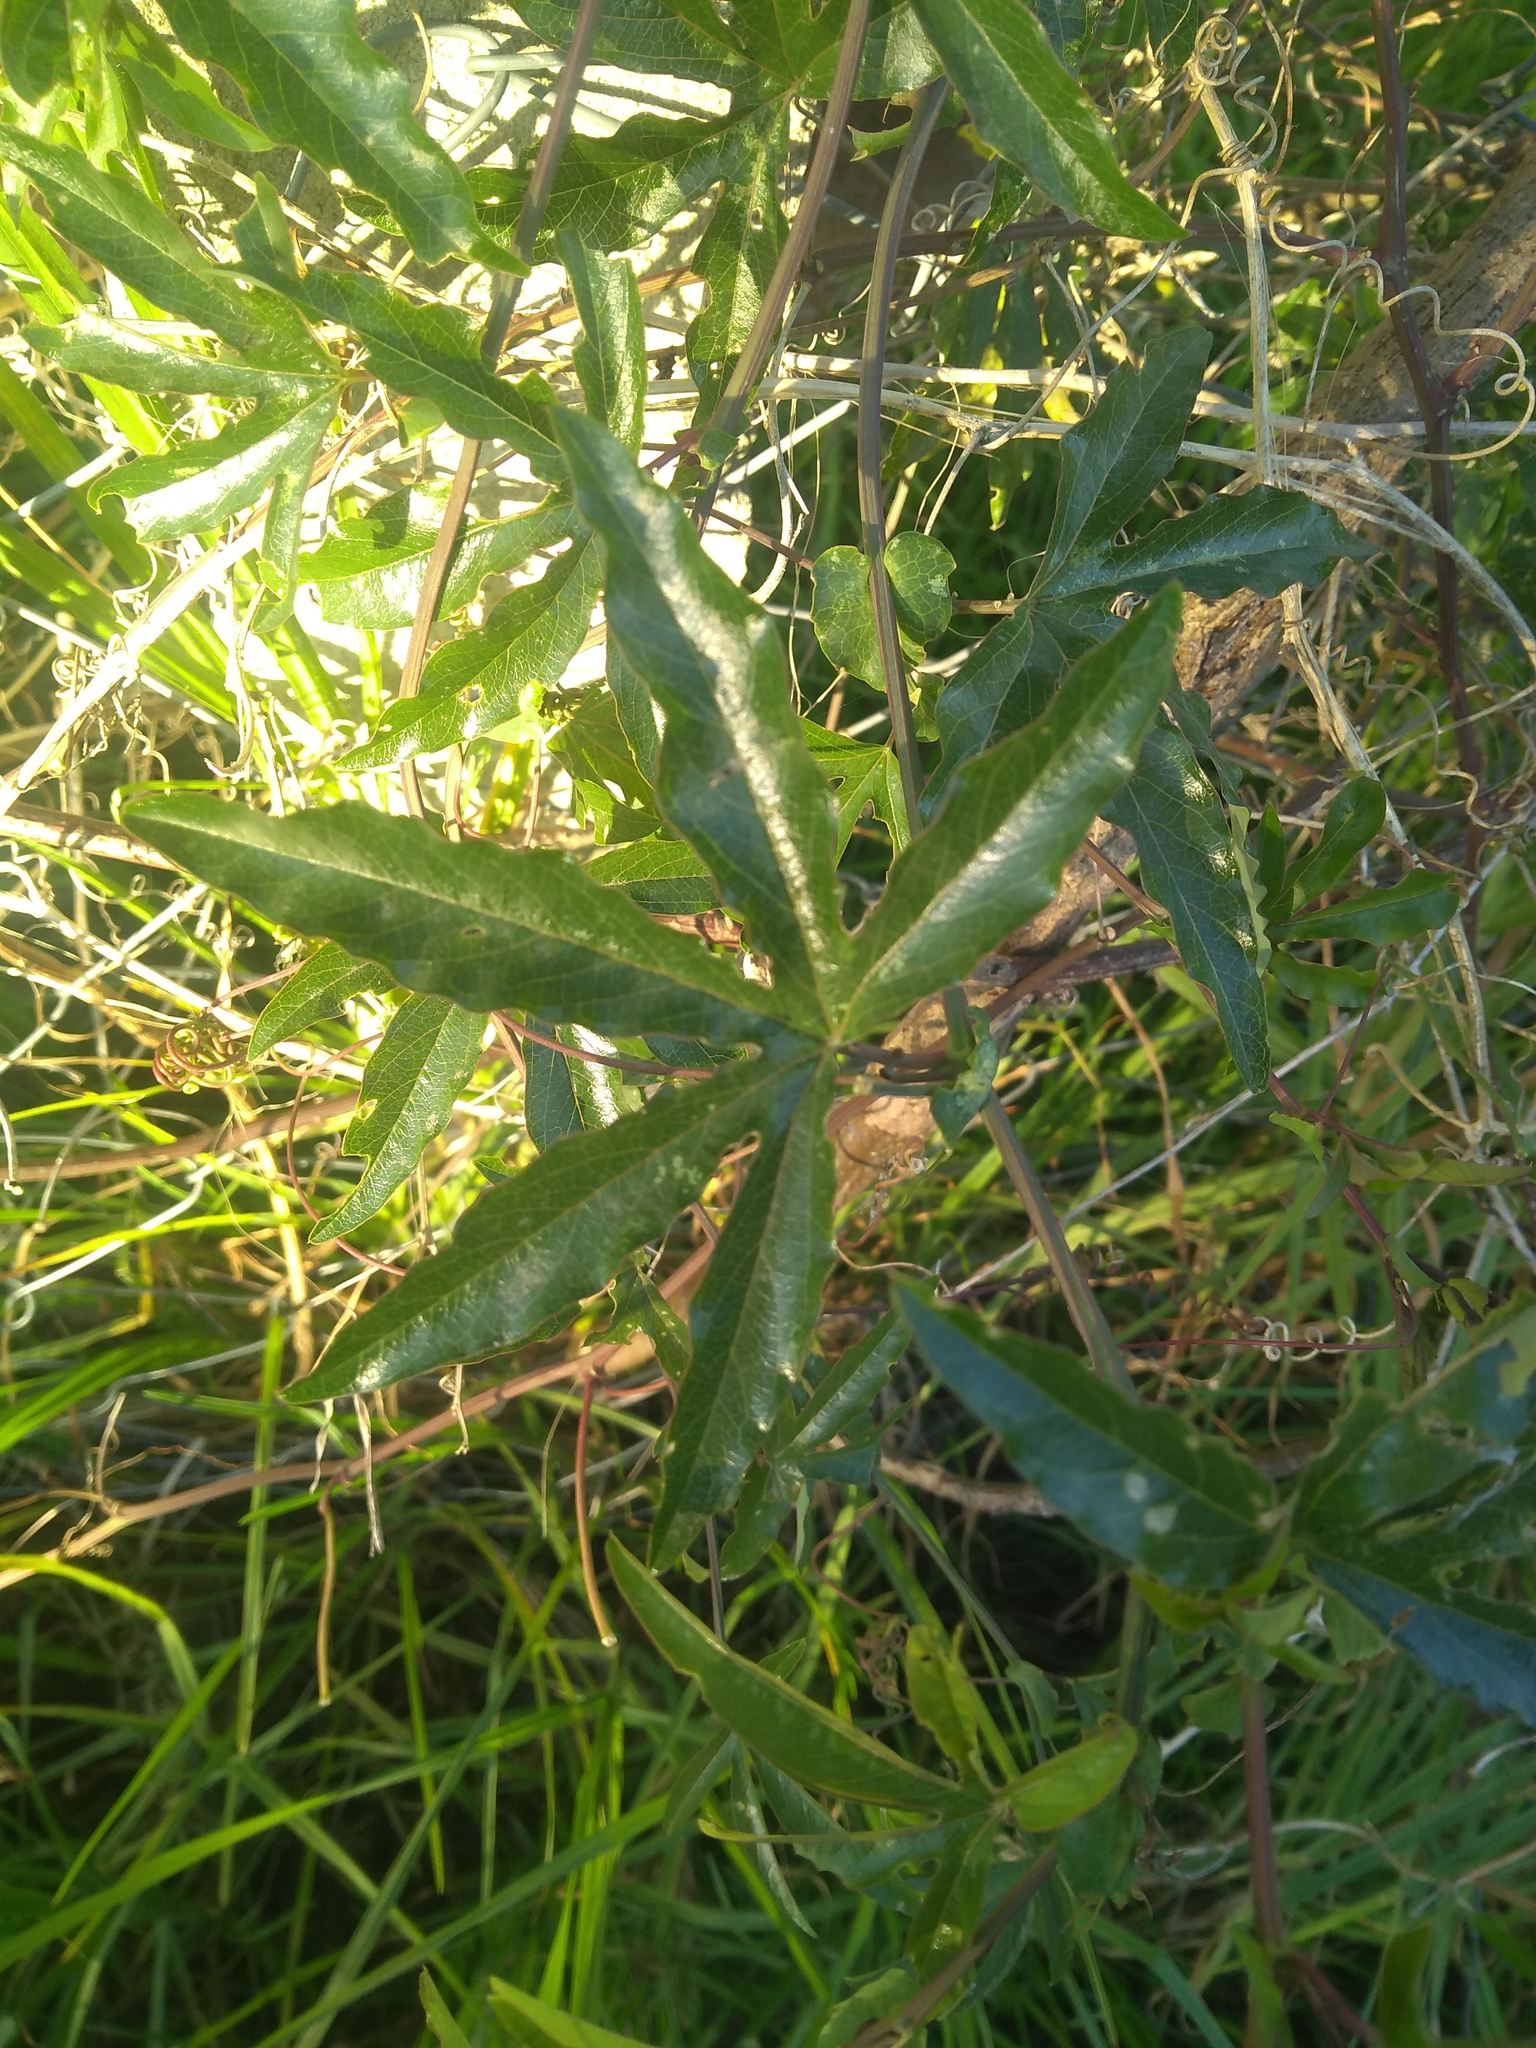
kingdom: Plantae
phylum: Tracheophyta
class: Magnoliopsida
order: Malpighiales
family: Passifloraceae
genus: Passiflora
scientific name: Passiflora caerulea
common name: Blue passionflower
